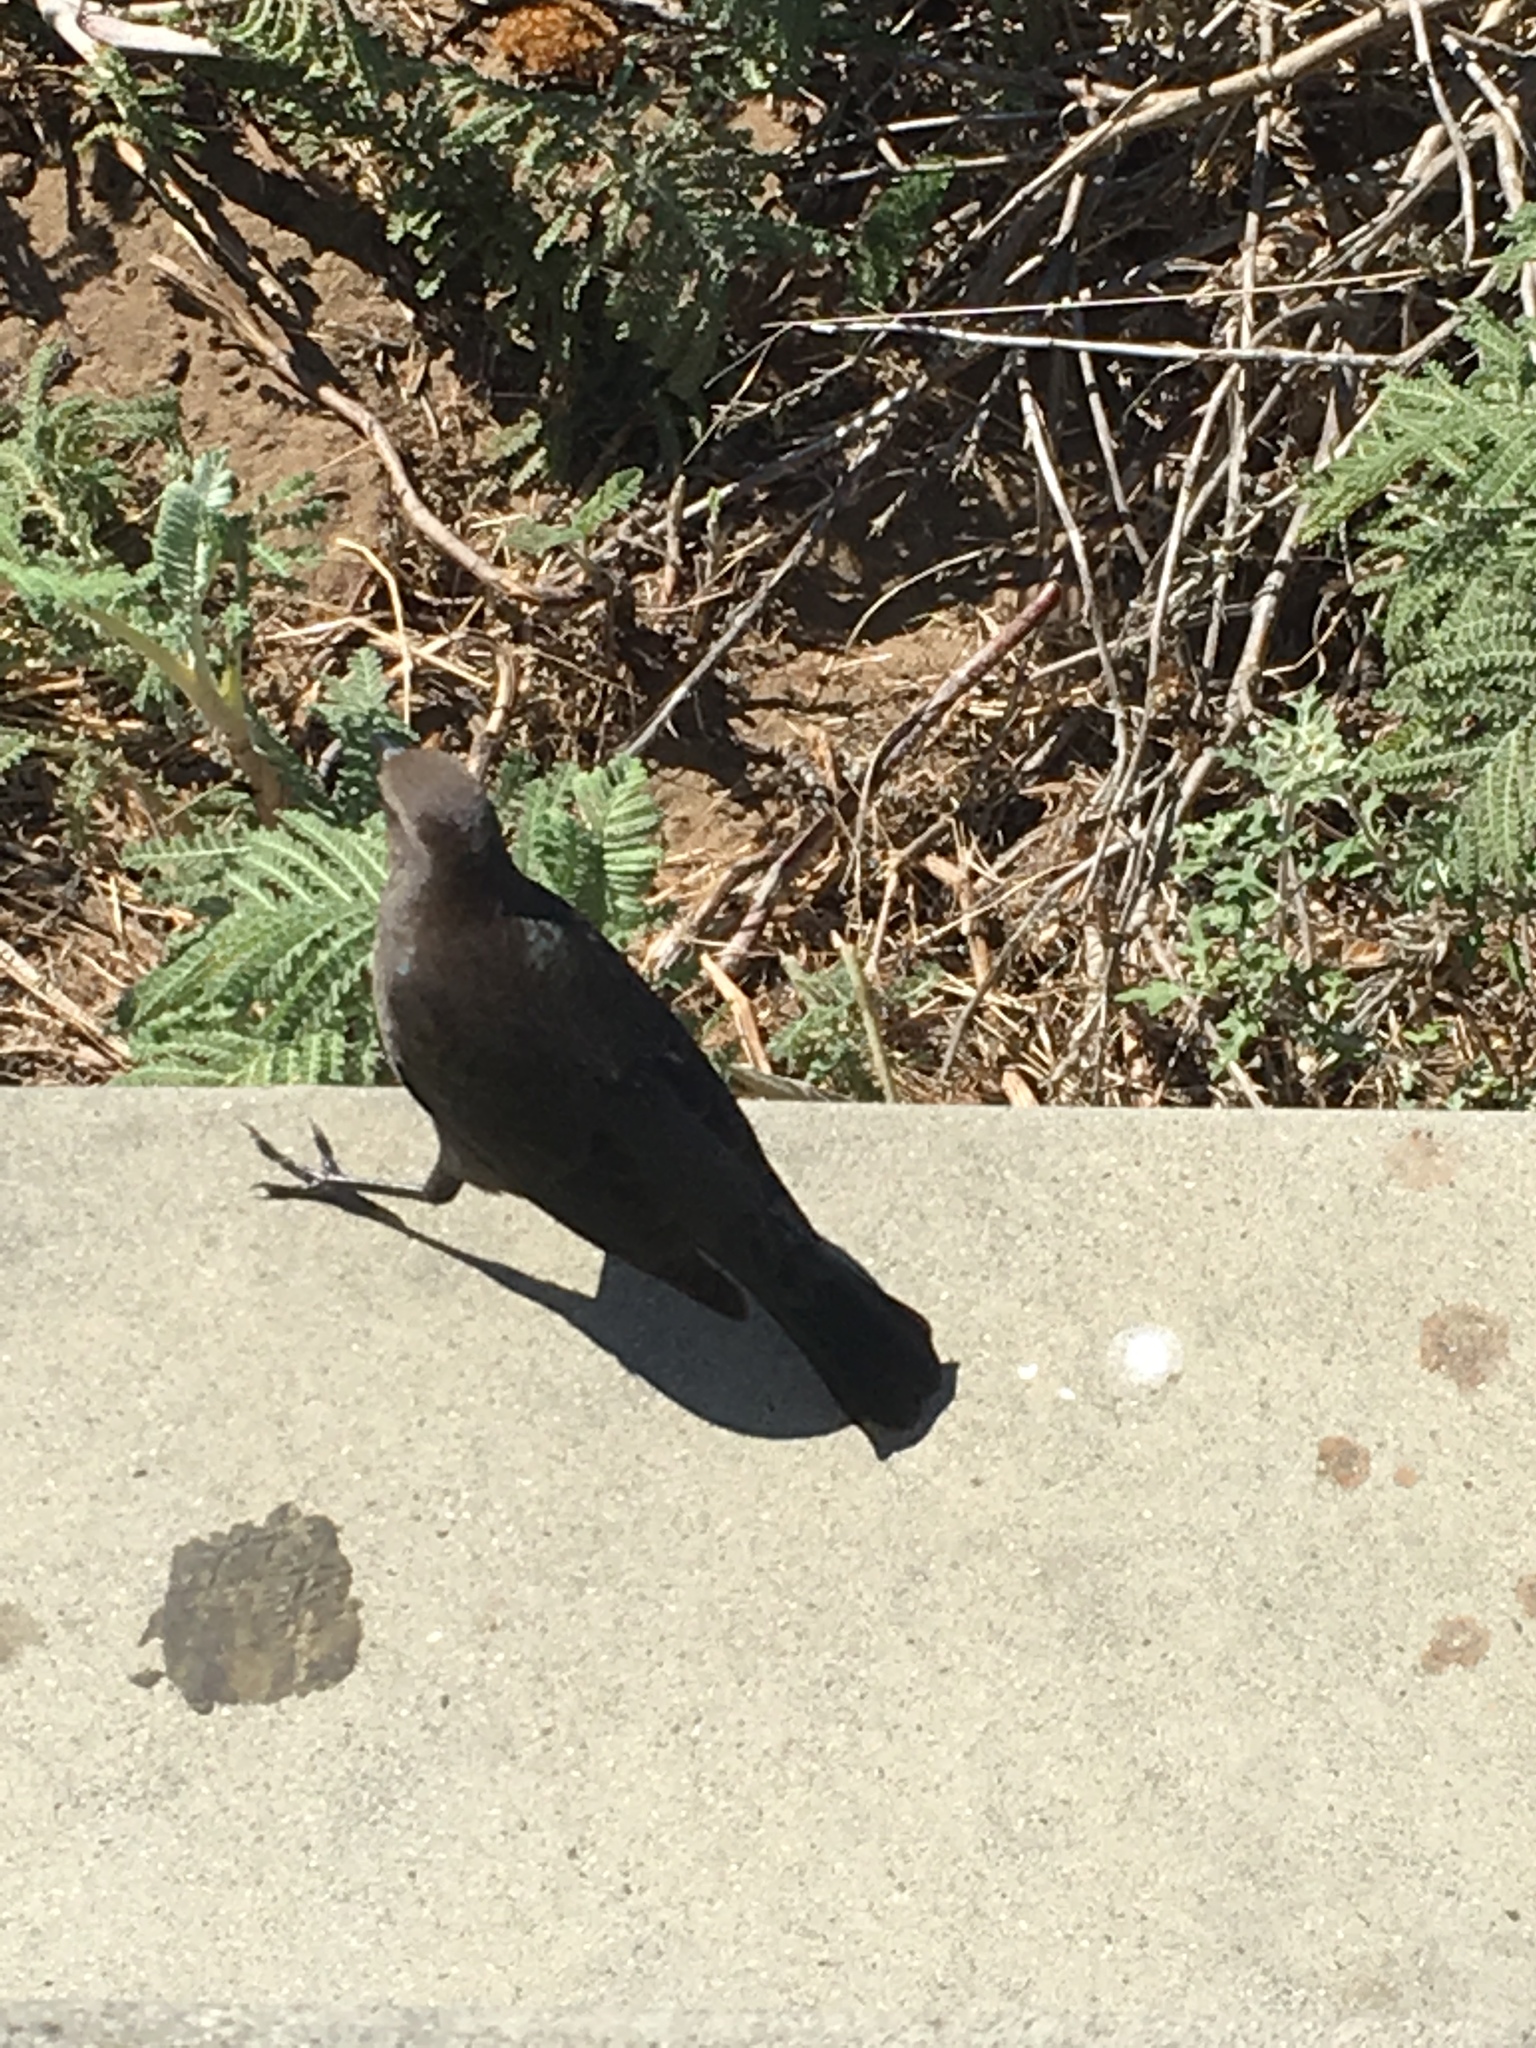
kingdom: Animalia
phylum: Chordata
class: Aves
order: Passeriformes
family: Icteridae
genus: Euphagus
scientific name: Euphagus cyanocephalus
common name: Brewer's blackbird
